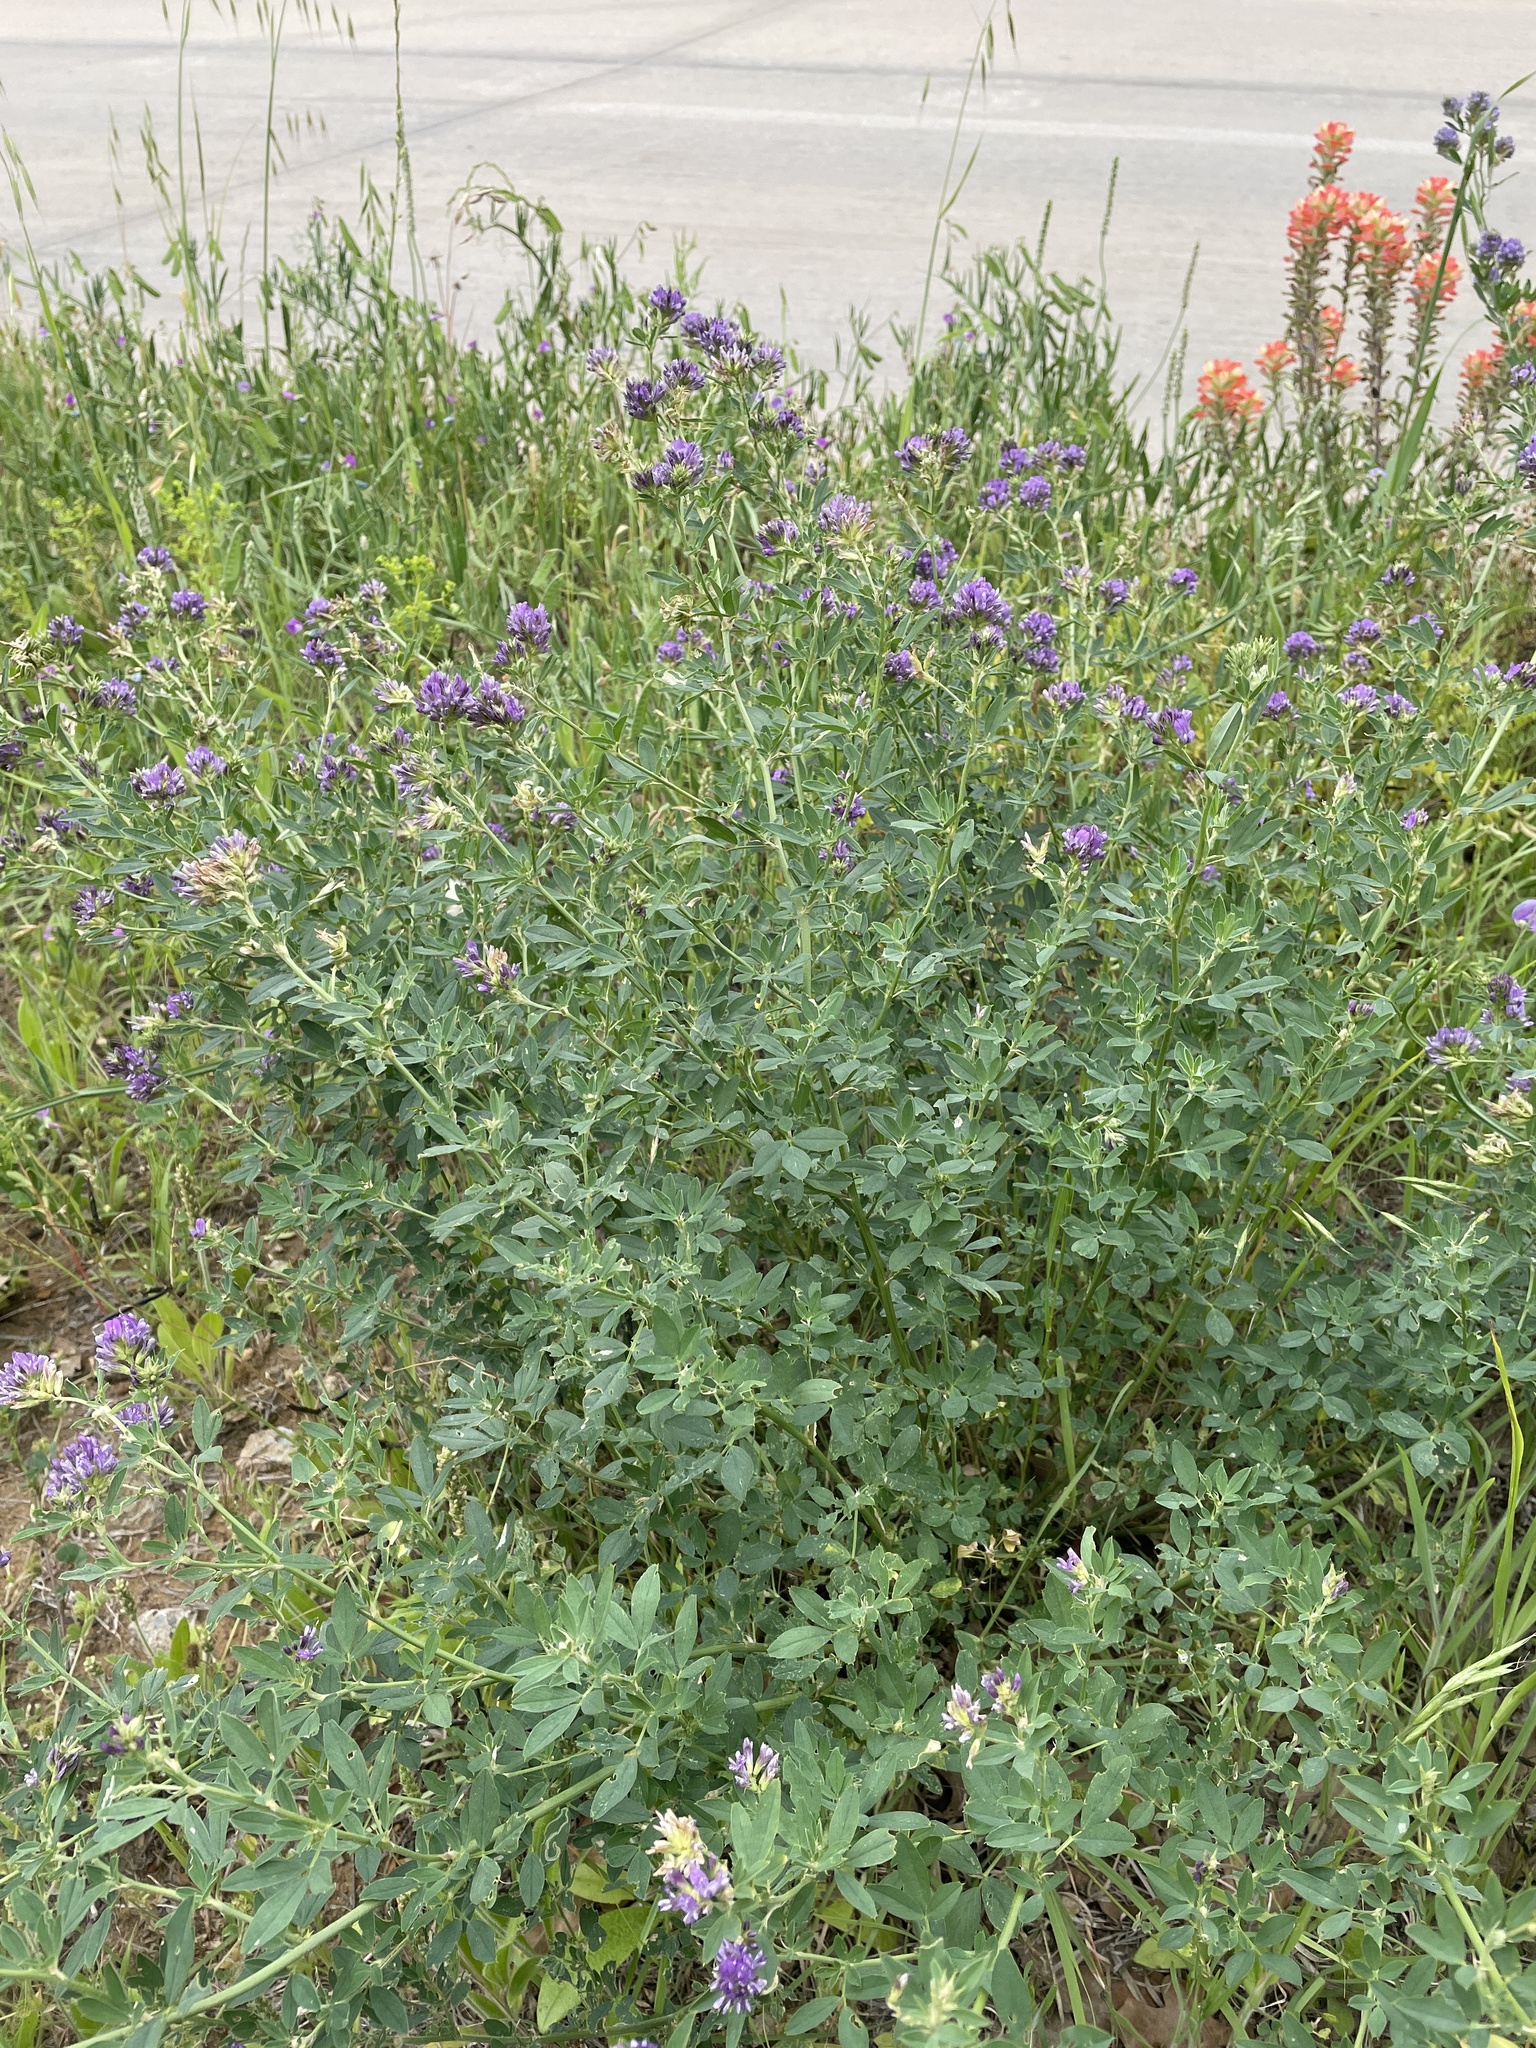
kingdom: Plantae
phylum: Tracheophyta
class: Magnoliopsida
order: Fabales
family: Fabaceae
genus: Medicago
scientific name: Medicago sativa
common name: Alfalfa
